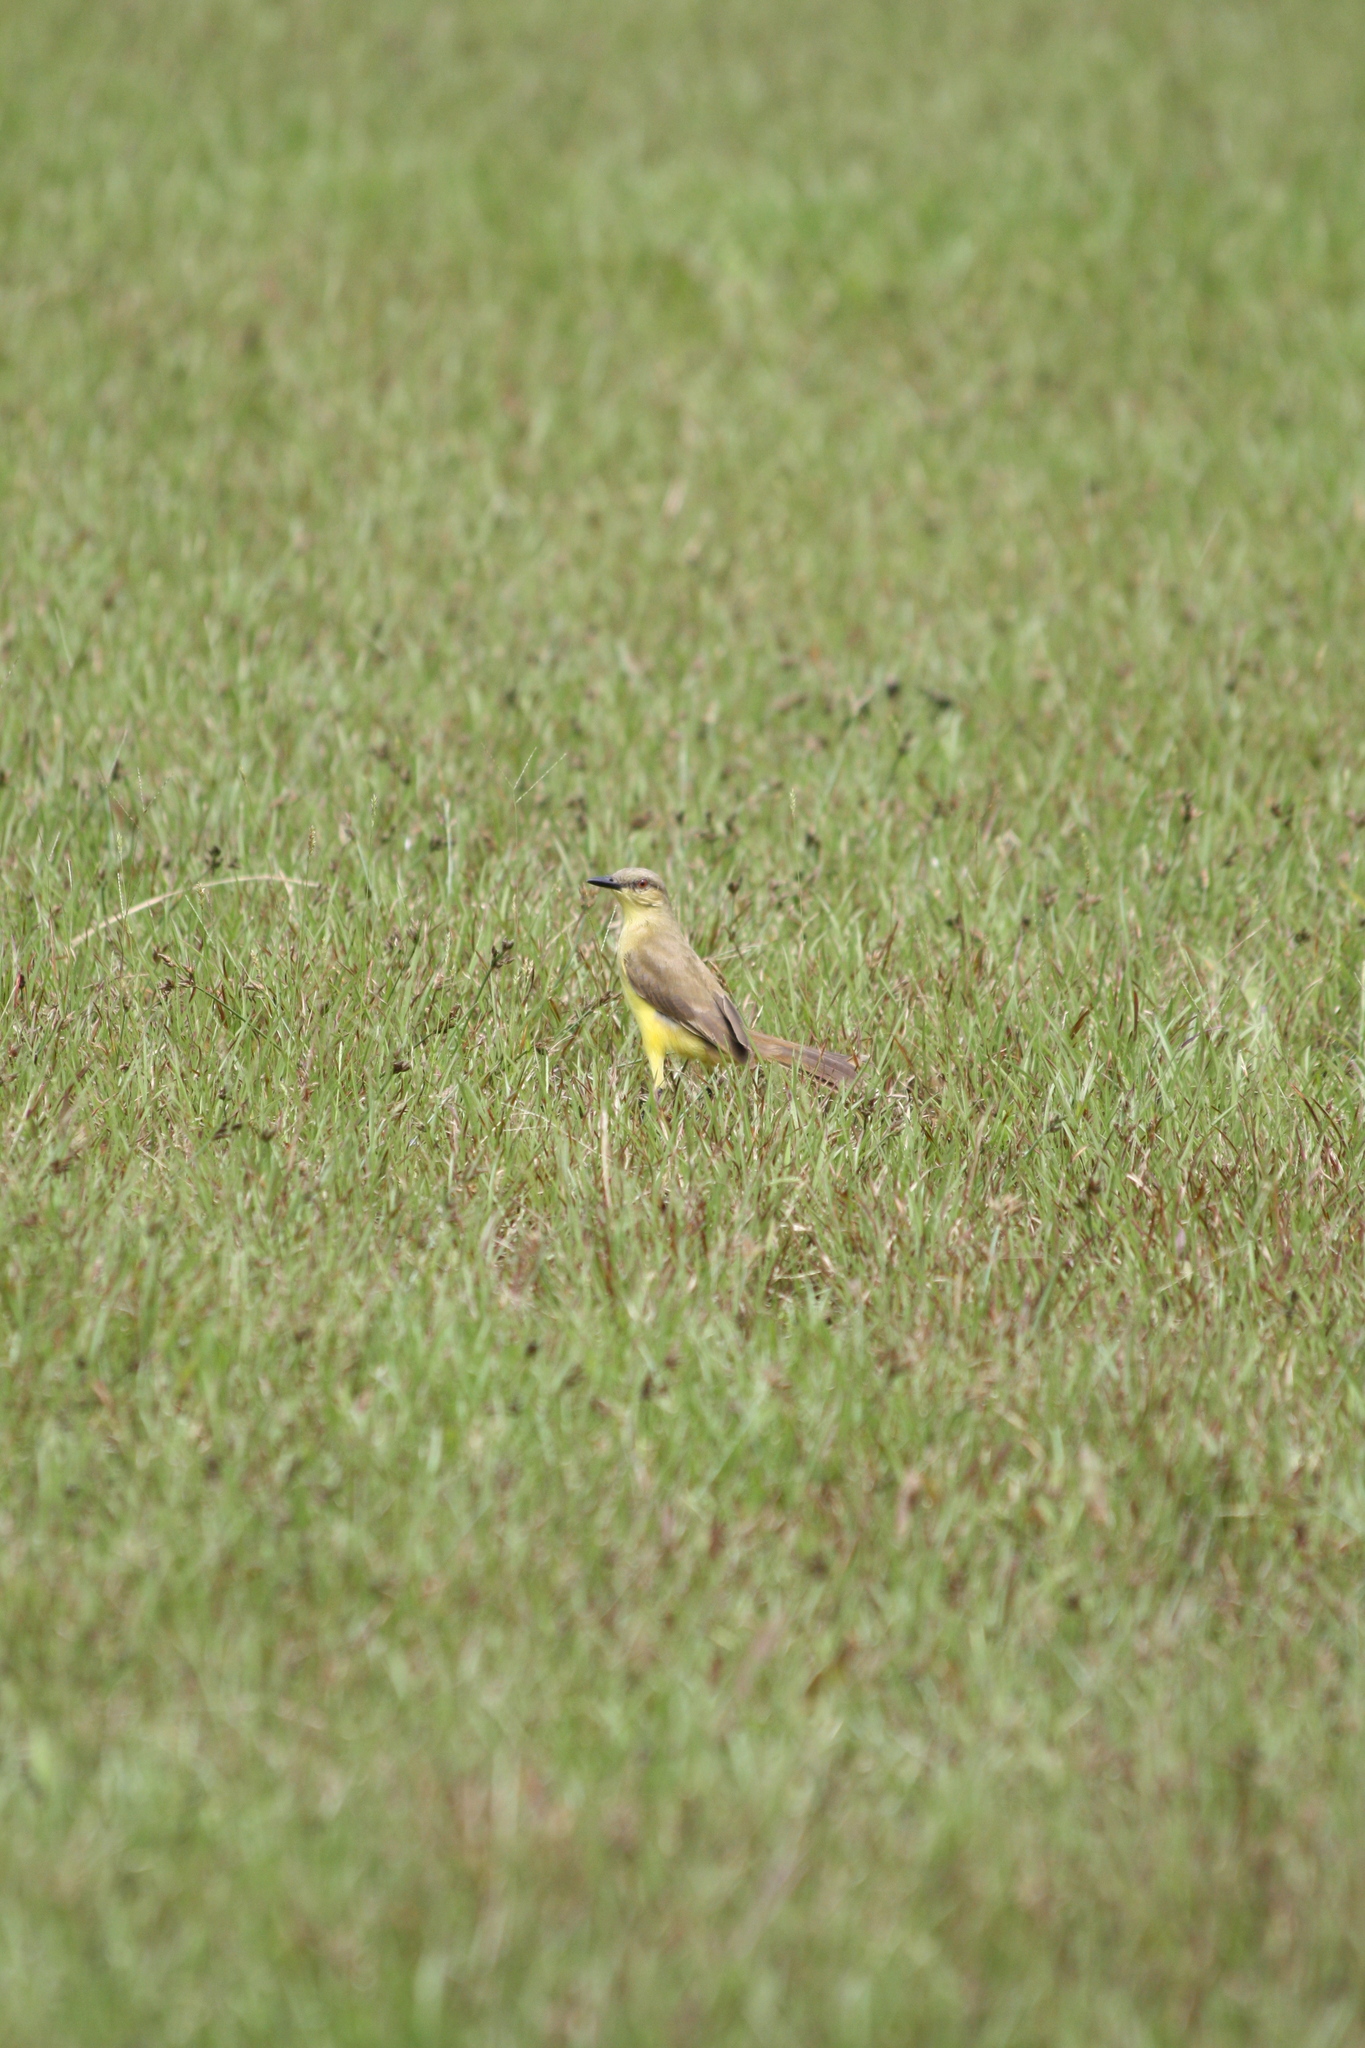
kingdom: Animalia
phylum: Chordata
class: Aves
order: Passeriformes
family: Tyrannidae
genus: Machetornis
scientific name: Machetornis rixosa
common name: Cattle tyrant
